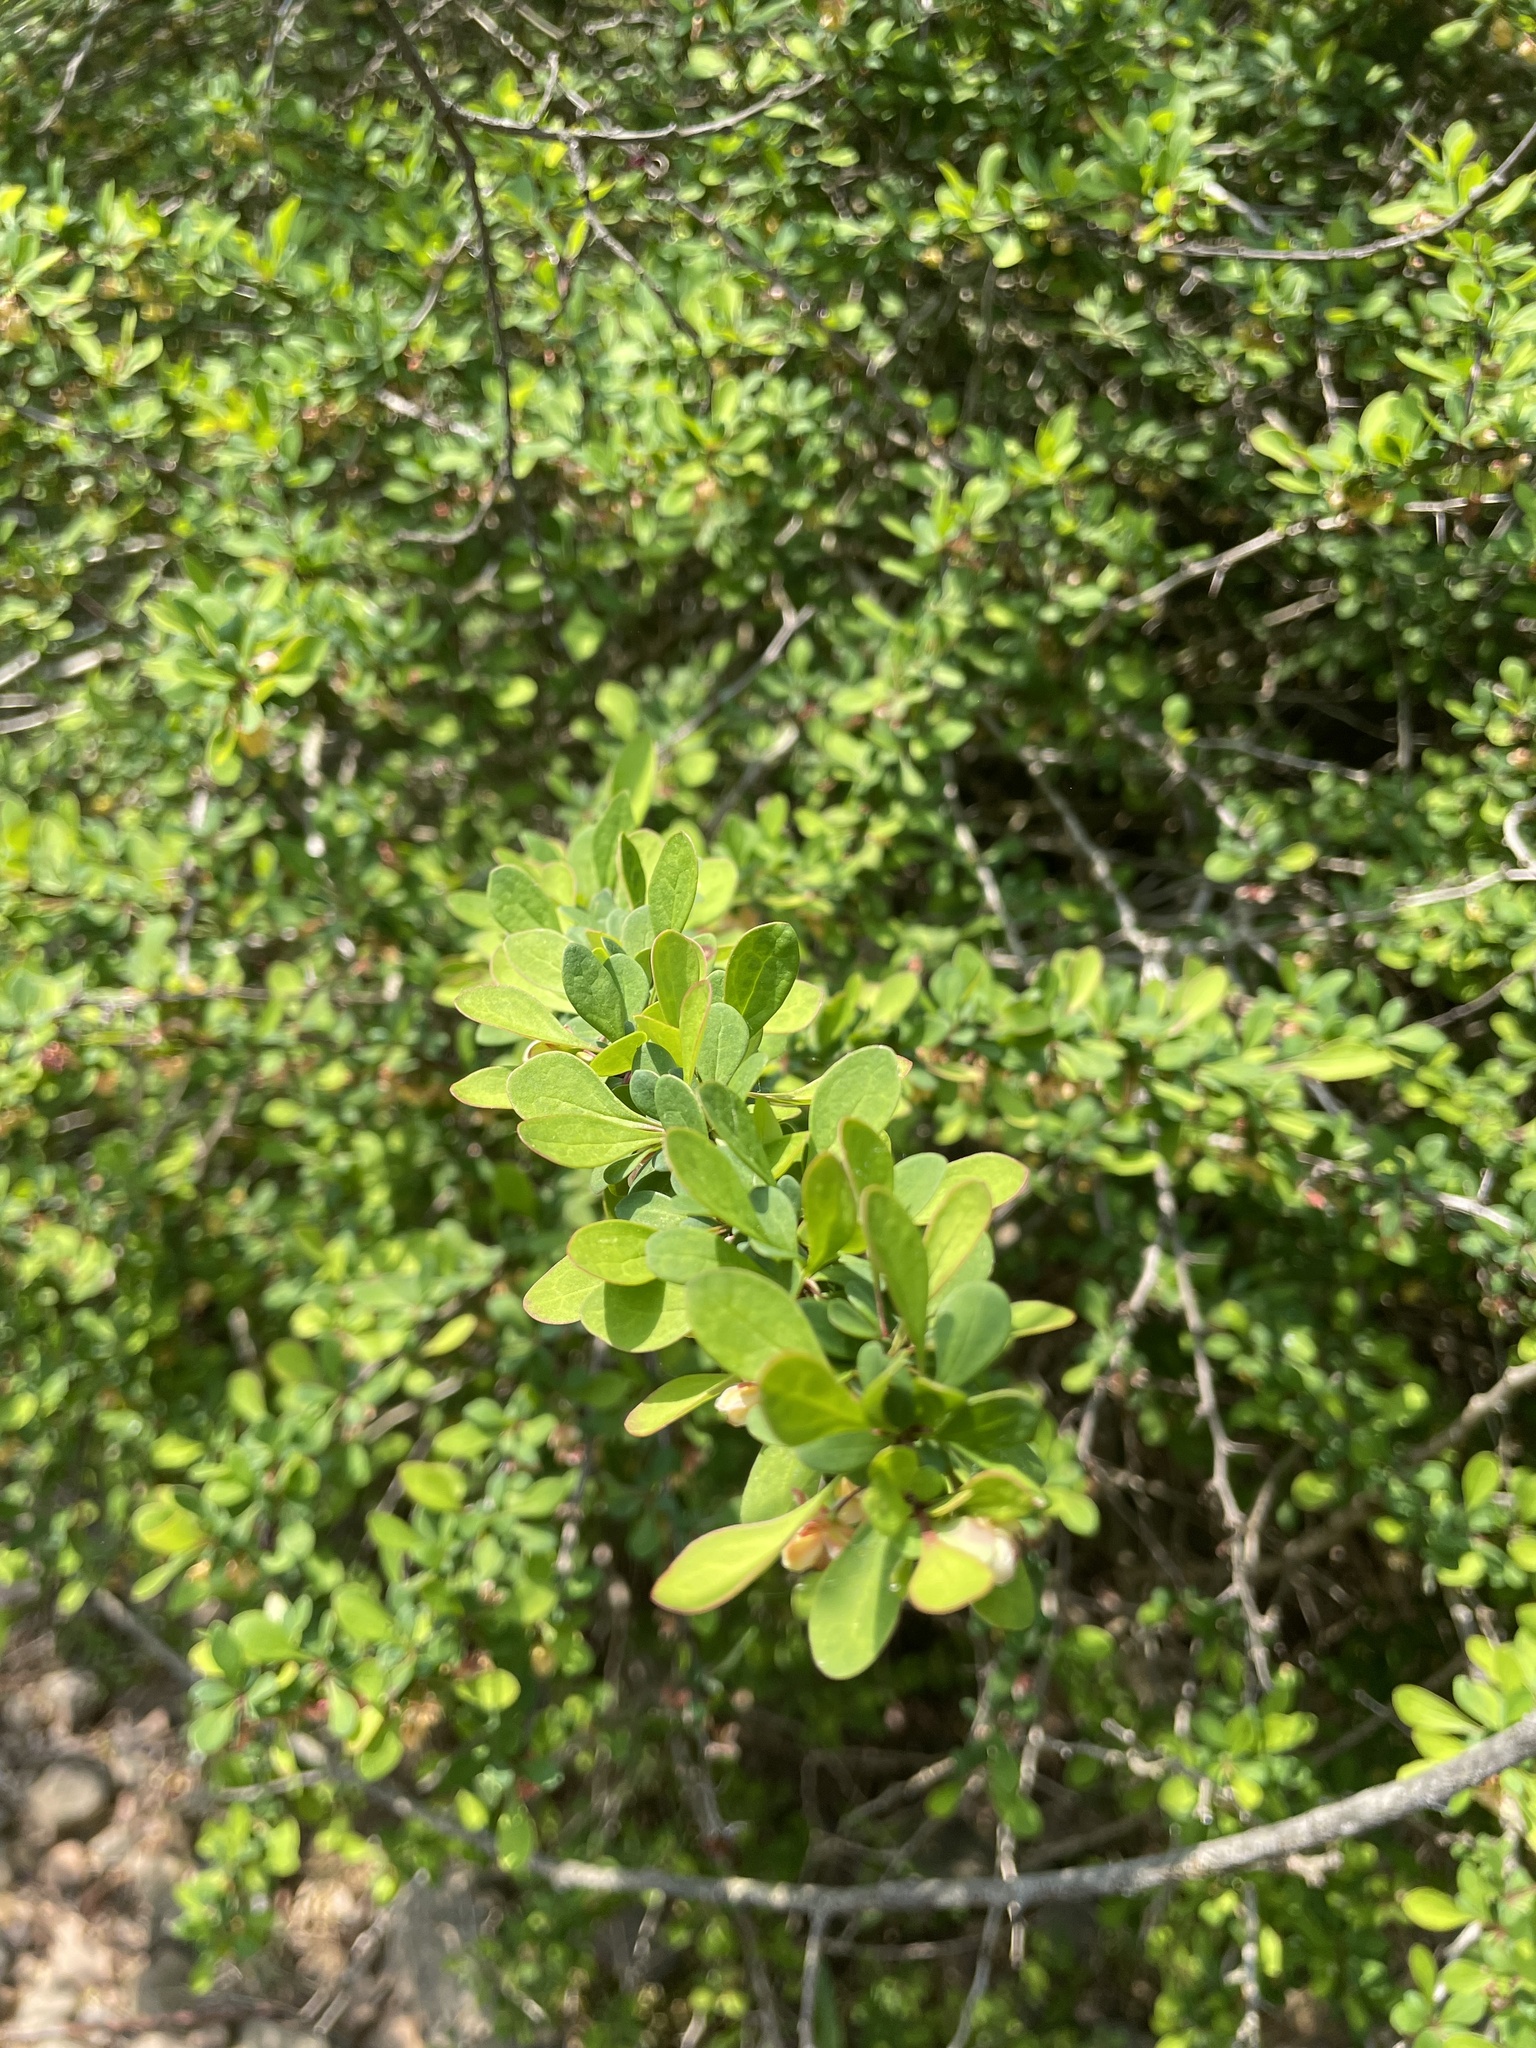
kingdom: Plantae
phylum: Tracheophyta
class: Magnoliopsida
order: Ranunculales
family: Berberidaceae
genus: Berberis
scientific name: Berberis thunbergii
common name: Japanese barberry
